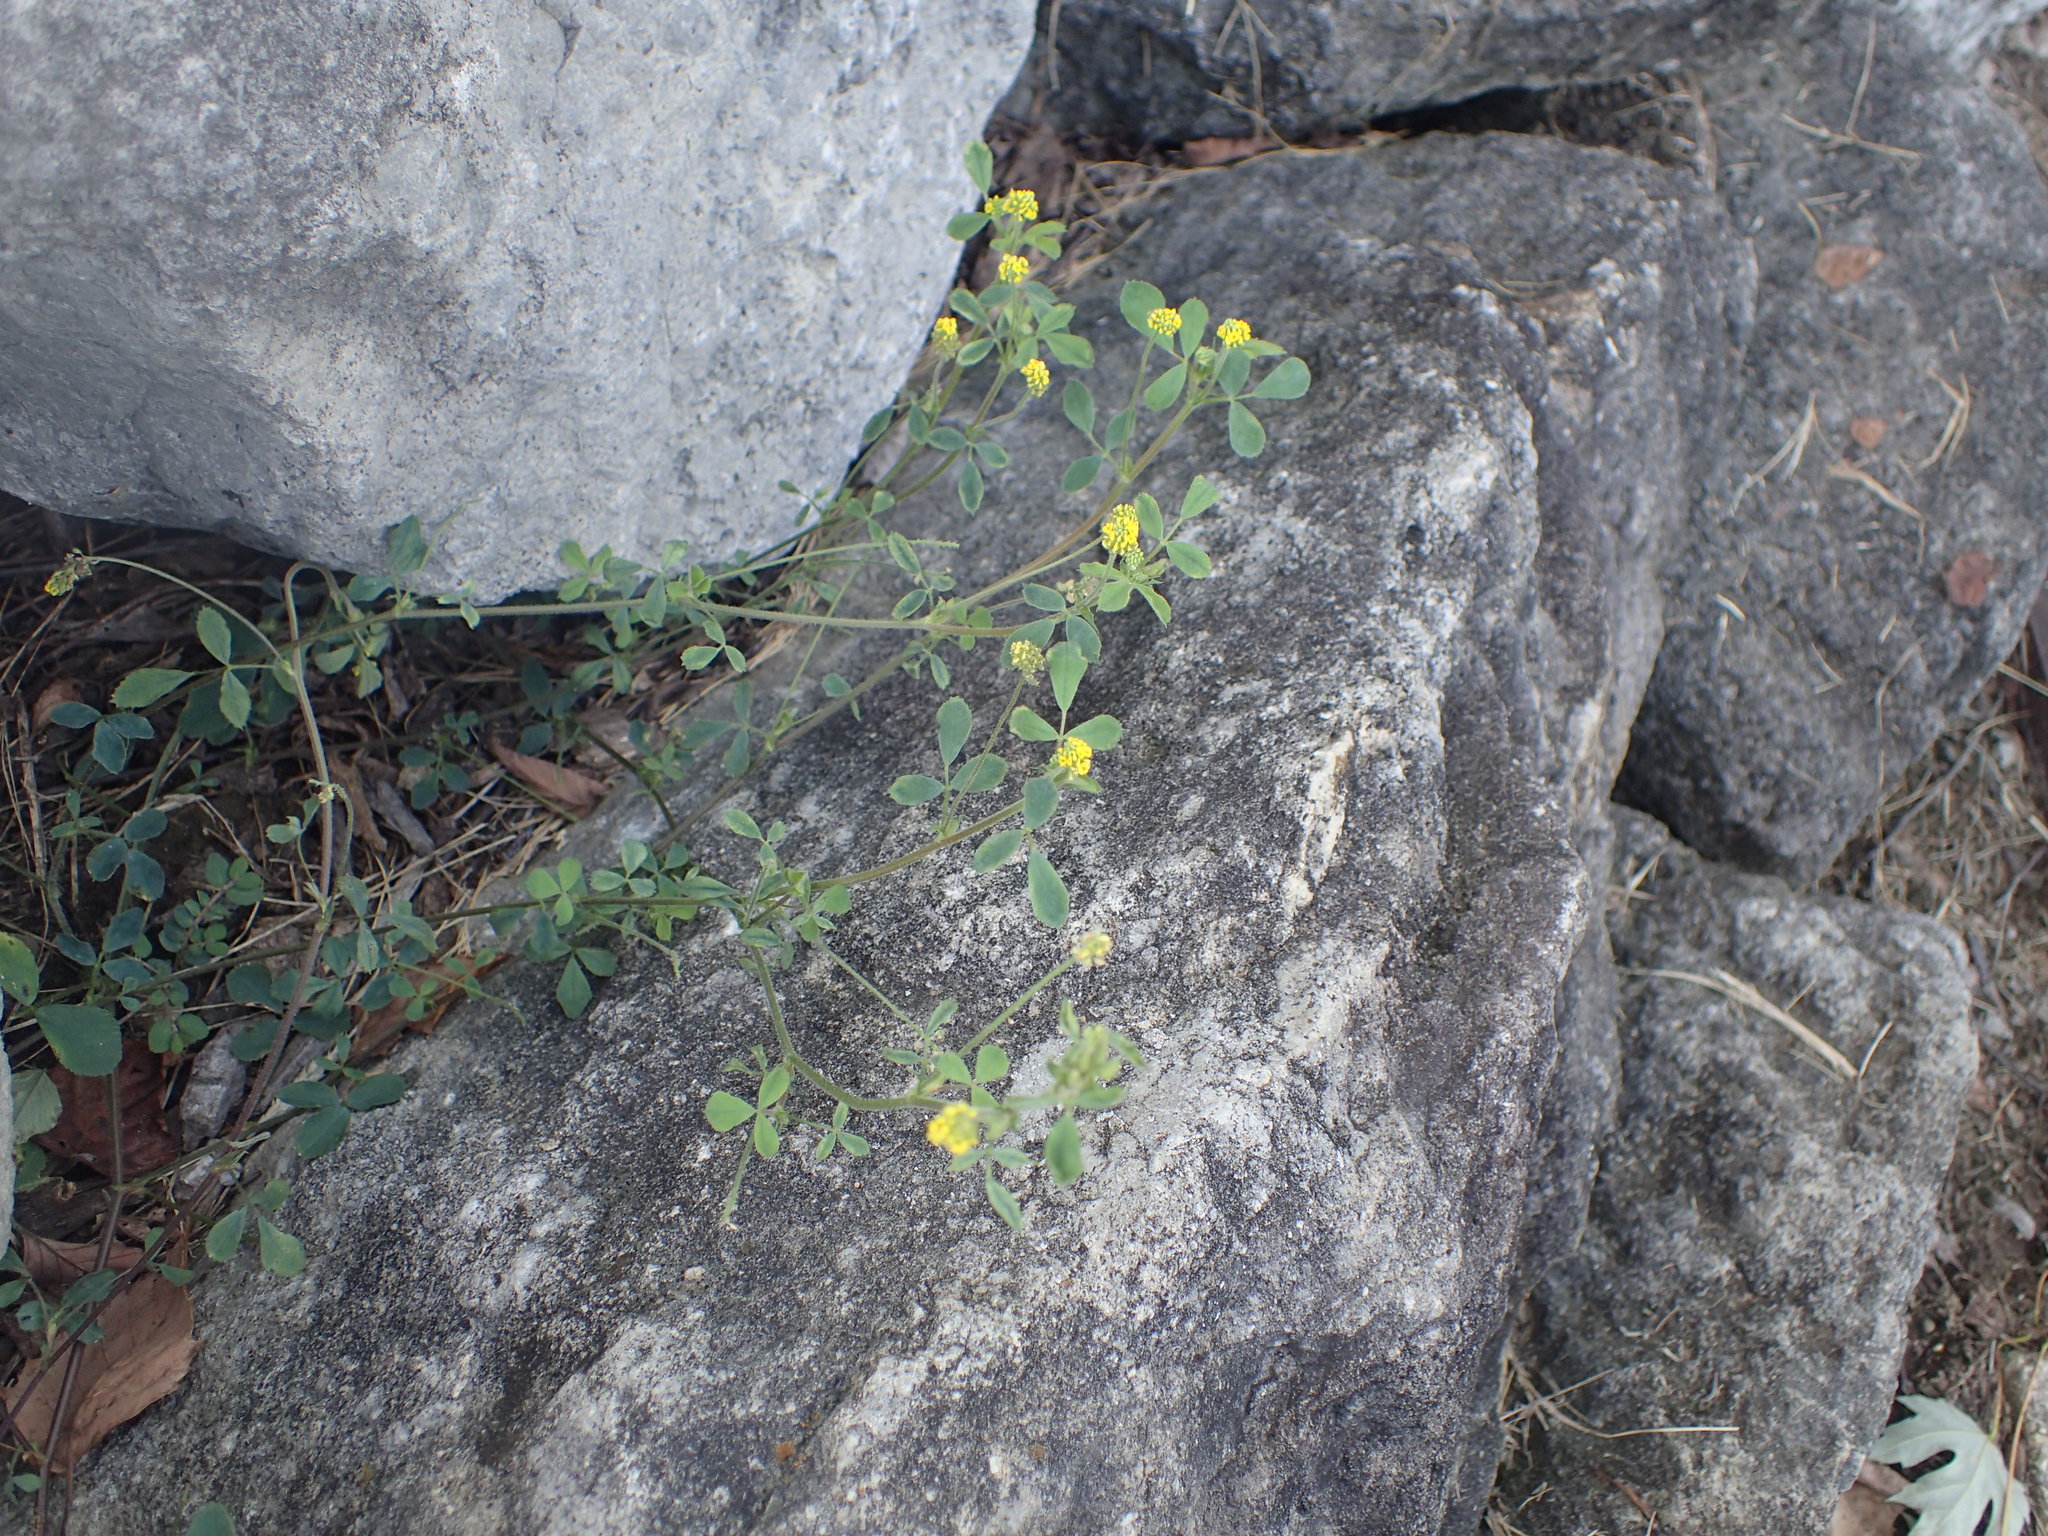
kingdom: Plantae
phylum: Tracheophyta
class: Magnoliopsida
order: Fabales
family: Fabaceae
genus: Medicago
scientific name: Medicago lupulina
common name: Black medick
